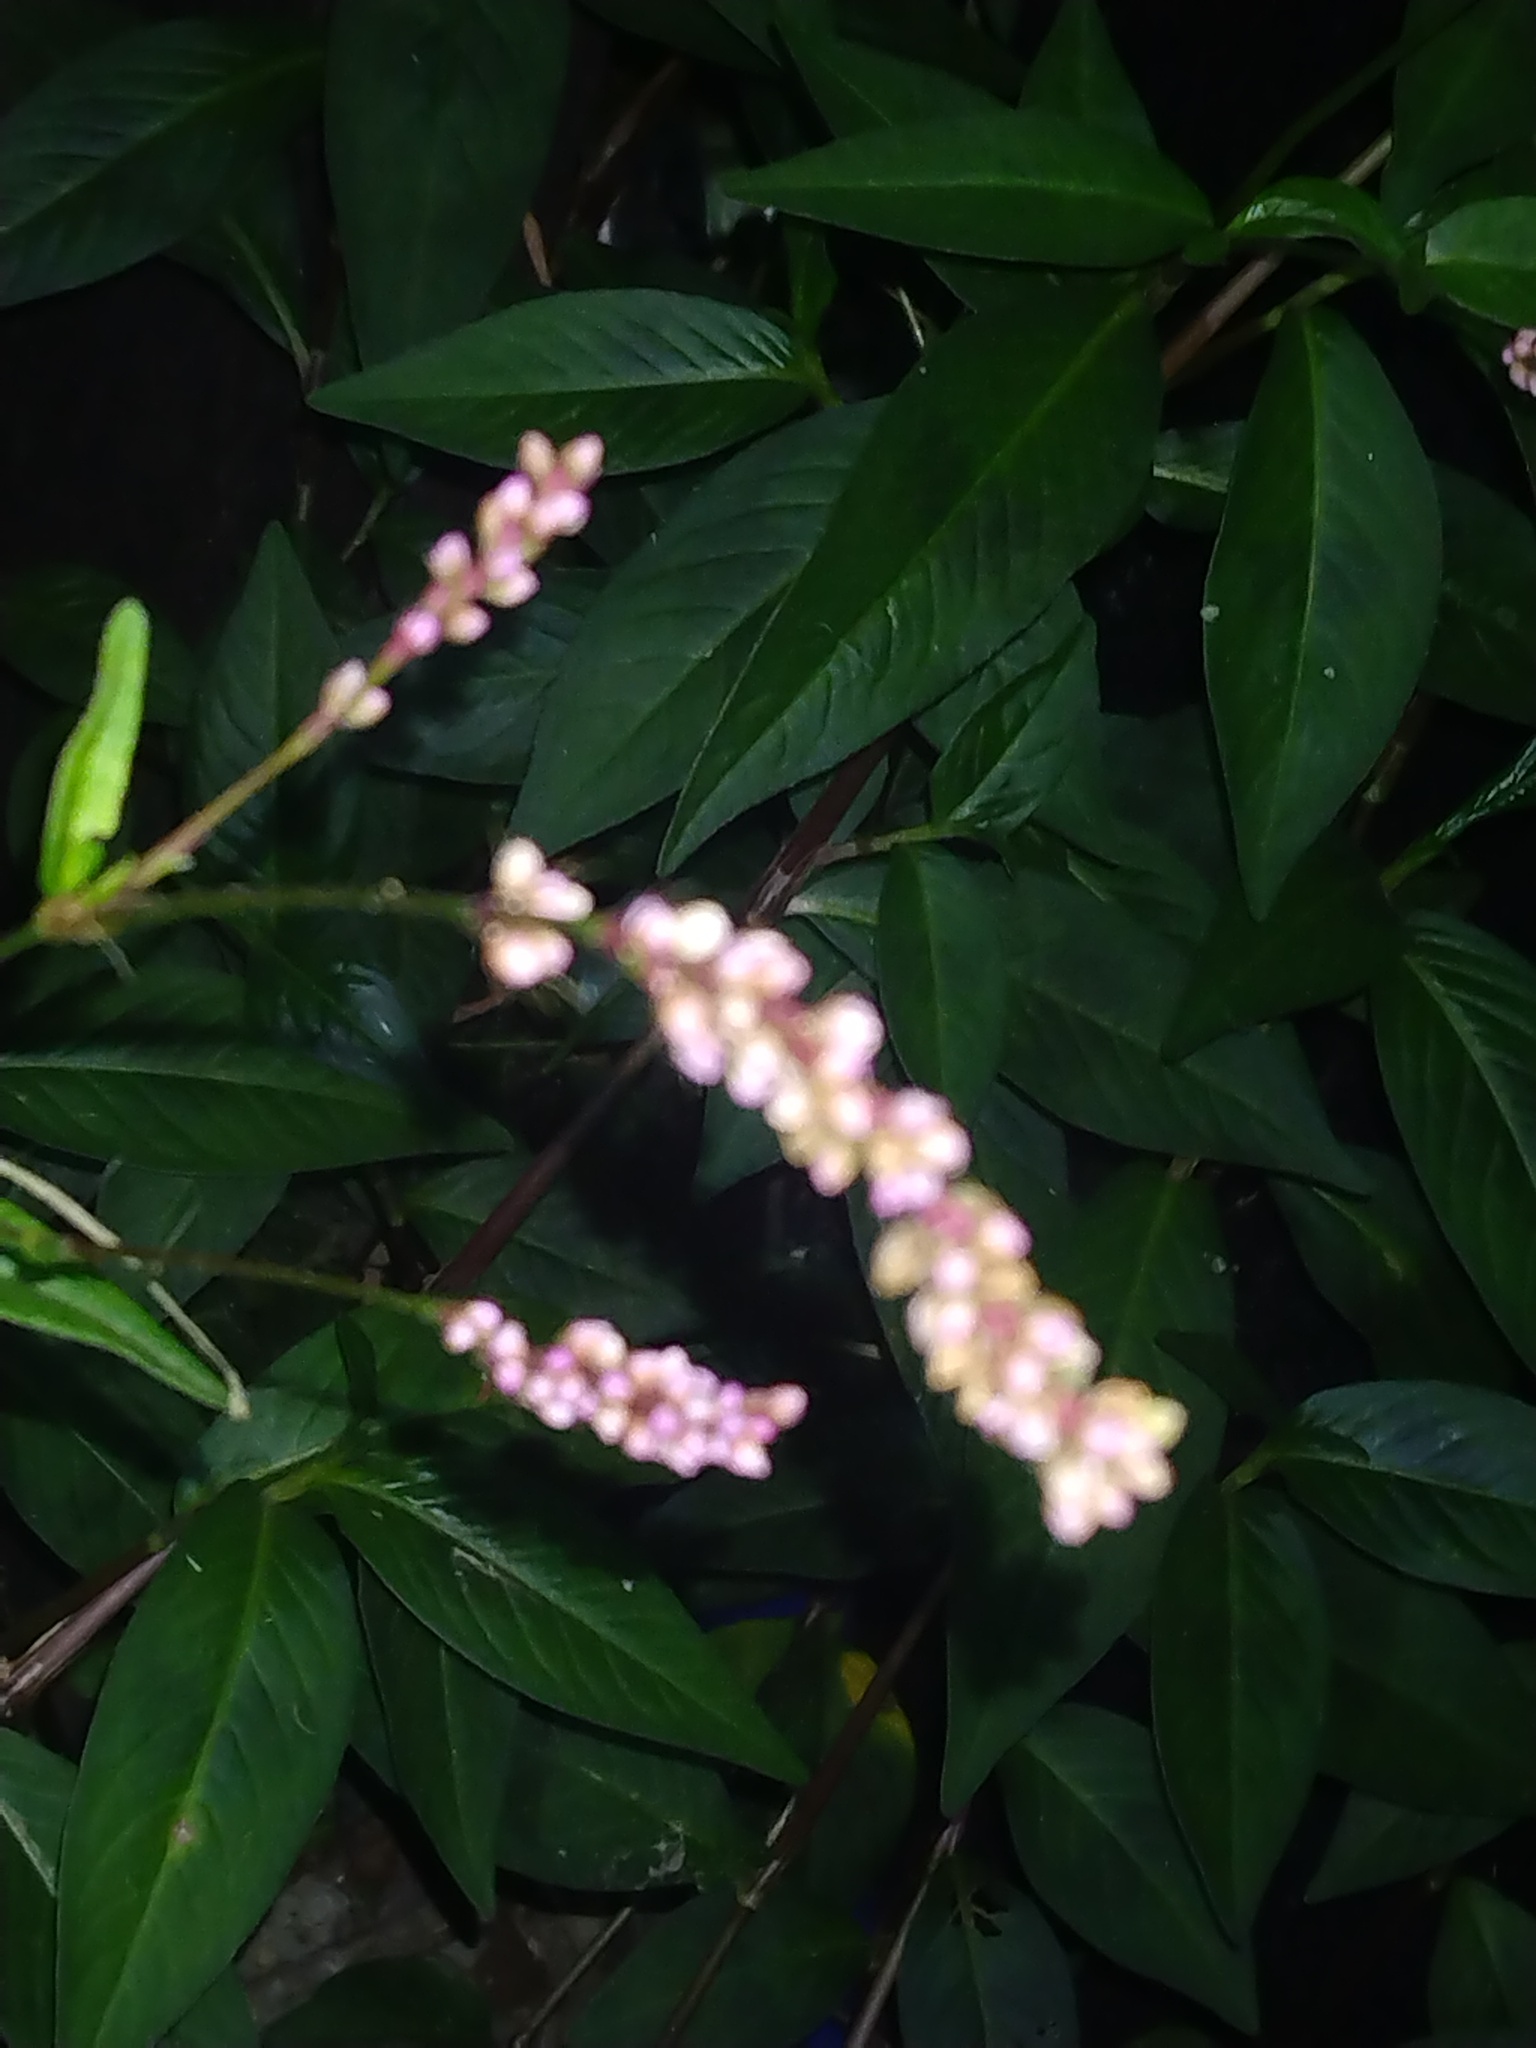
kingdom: Plantae
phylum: Tracheophyta
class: Magnoliopsida
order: Caryophyllales
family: Polygonaceae
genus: Persicaria
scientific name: Persicaria longiseta
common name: Bristly lady's-thumb
